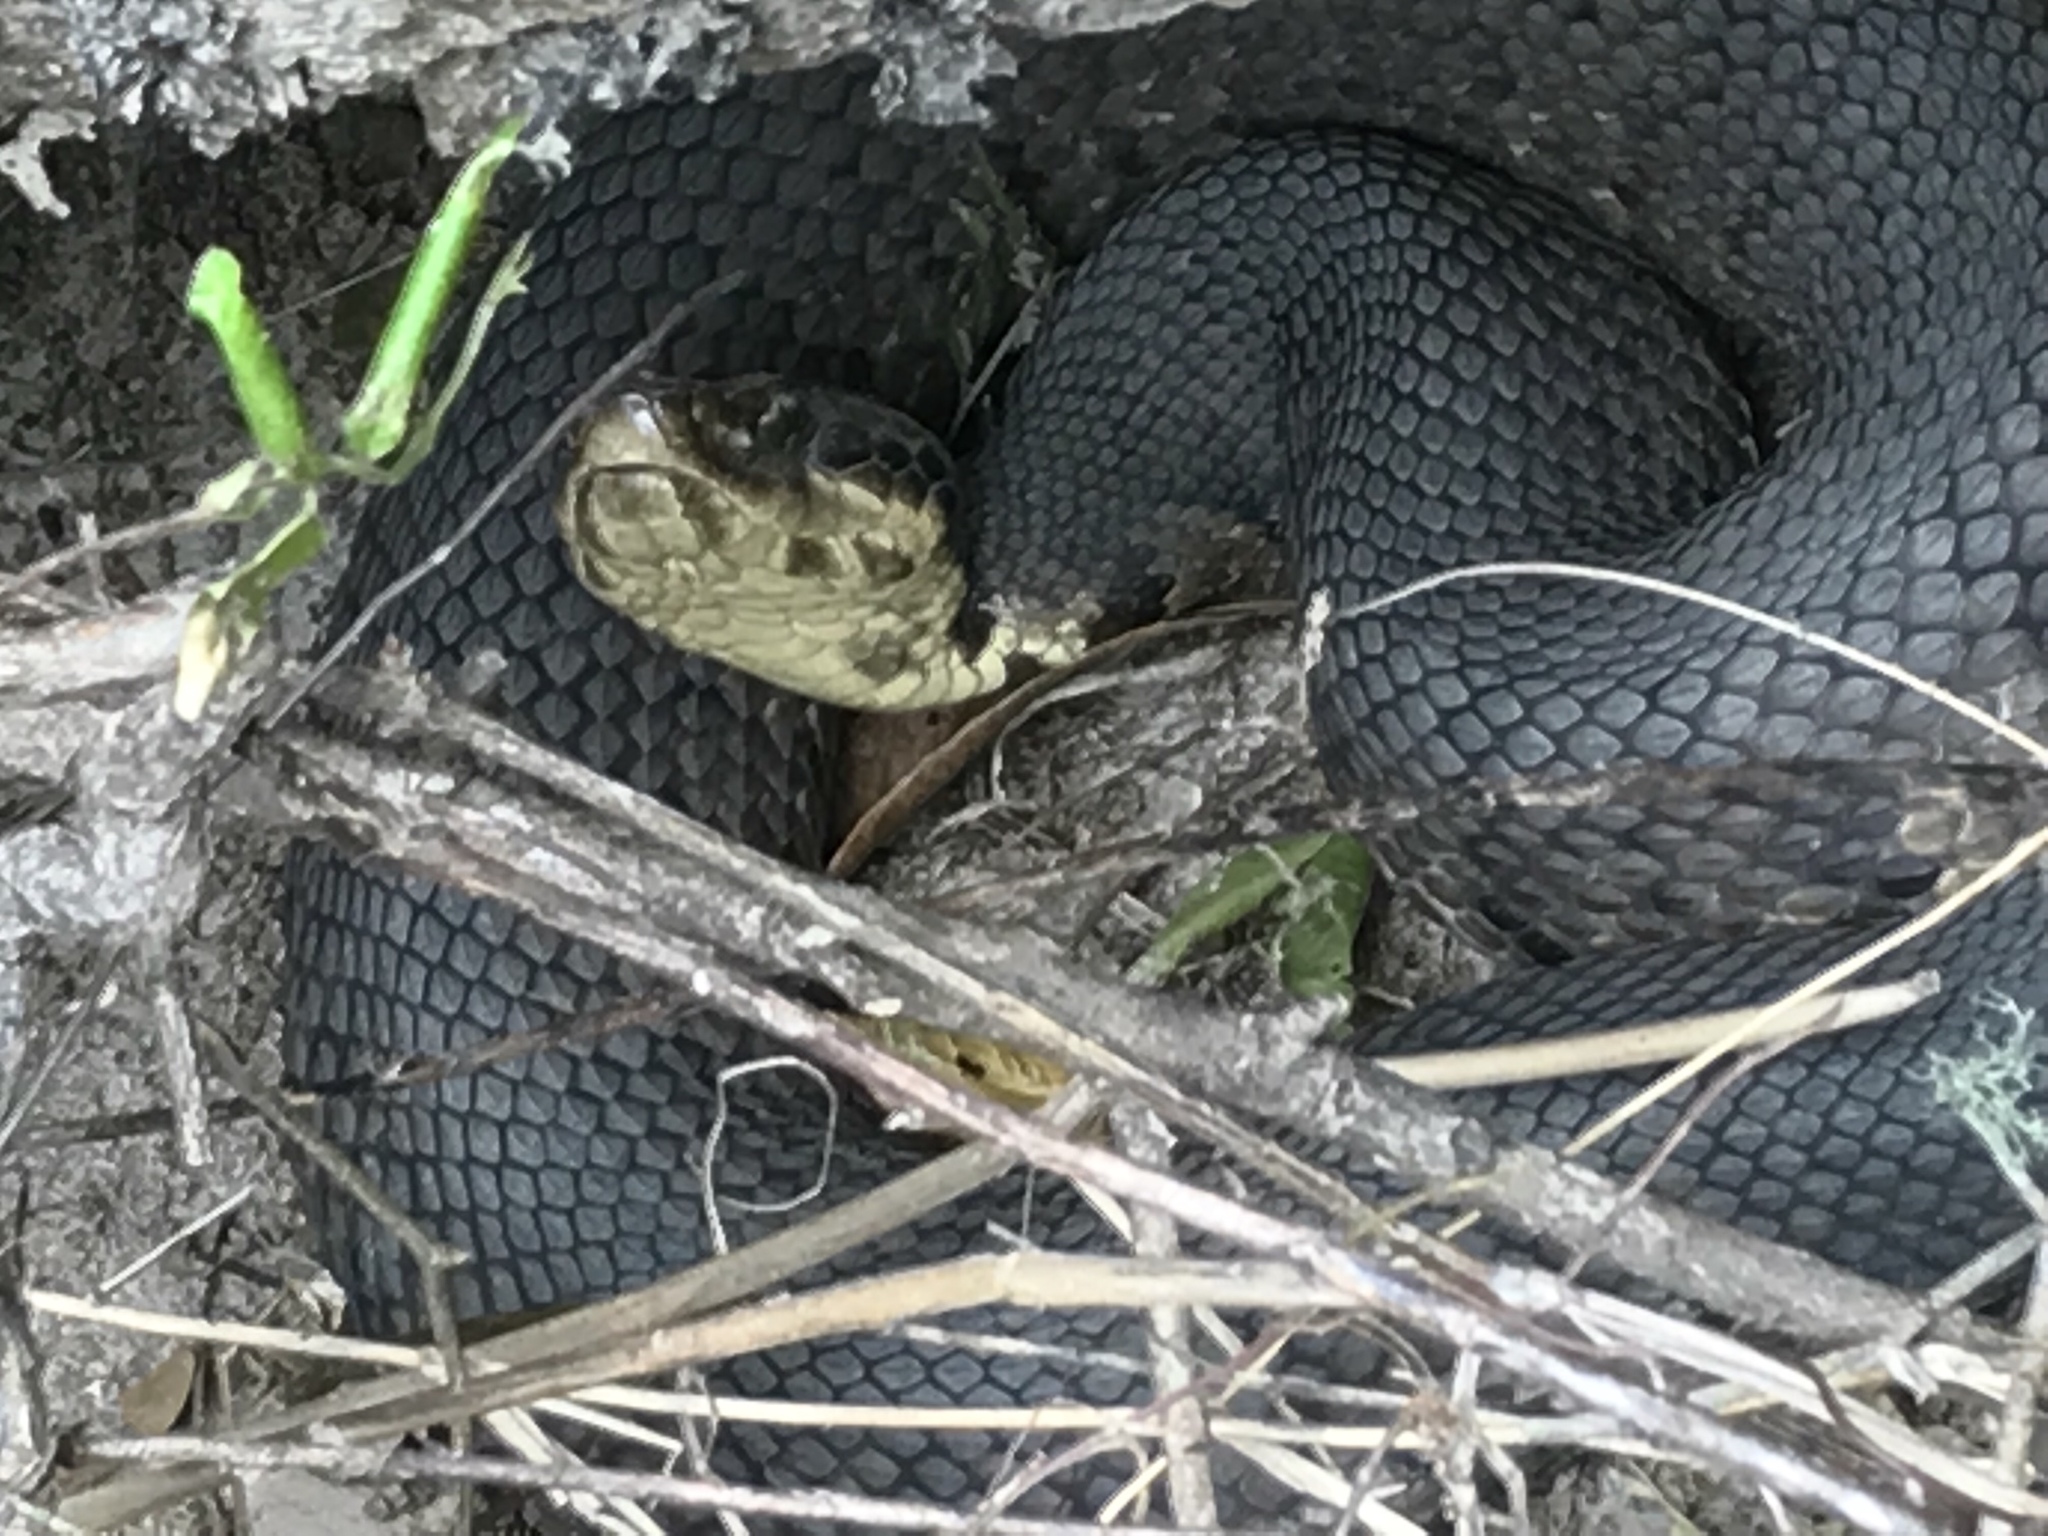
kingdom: Animalia
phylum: Chordata
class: Squamata
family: Viperidae
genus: Agkistrodon
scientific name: Agkistrodon piscivorus
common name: Cottonmouth
